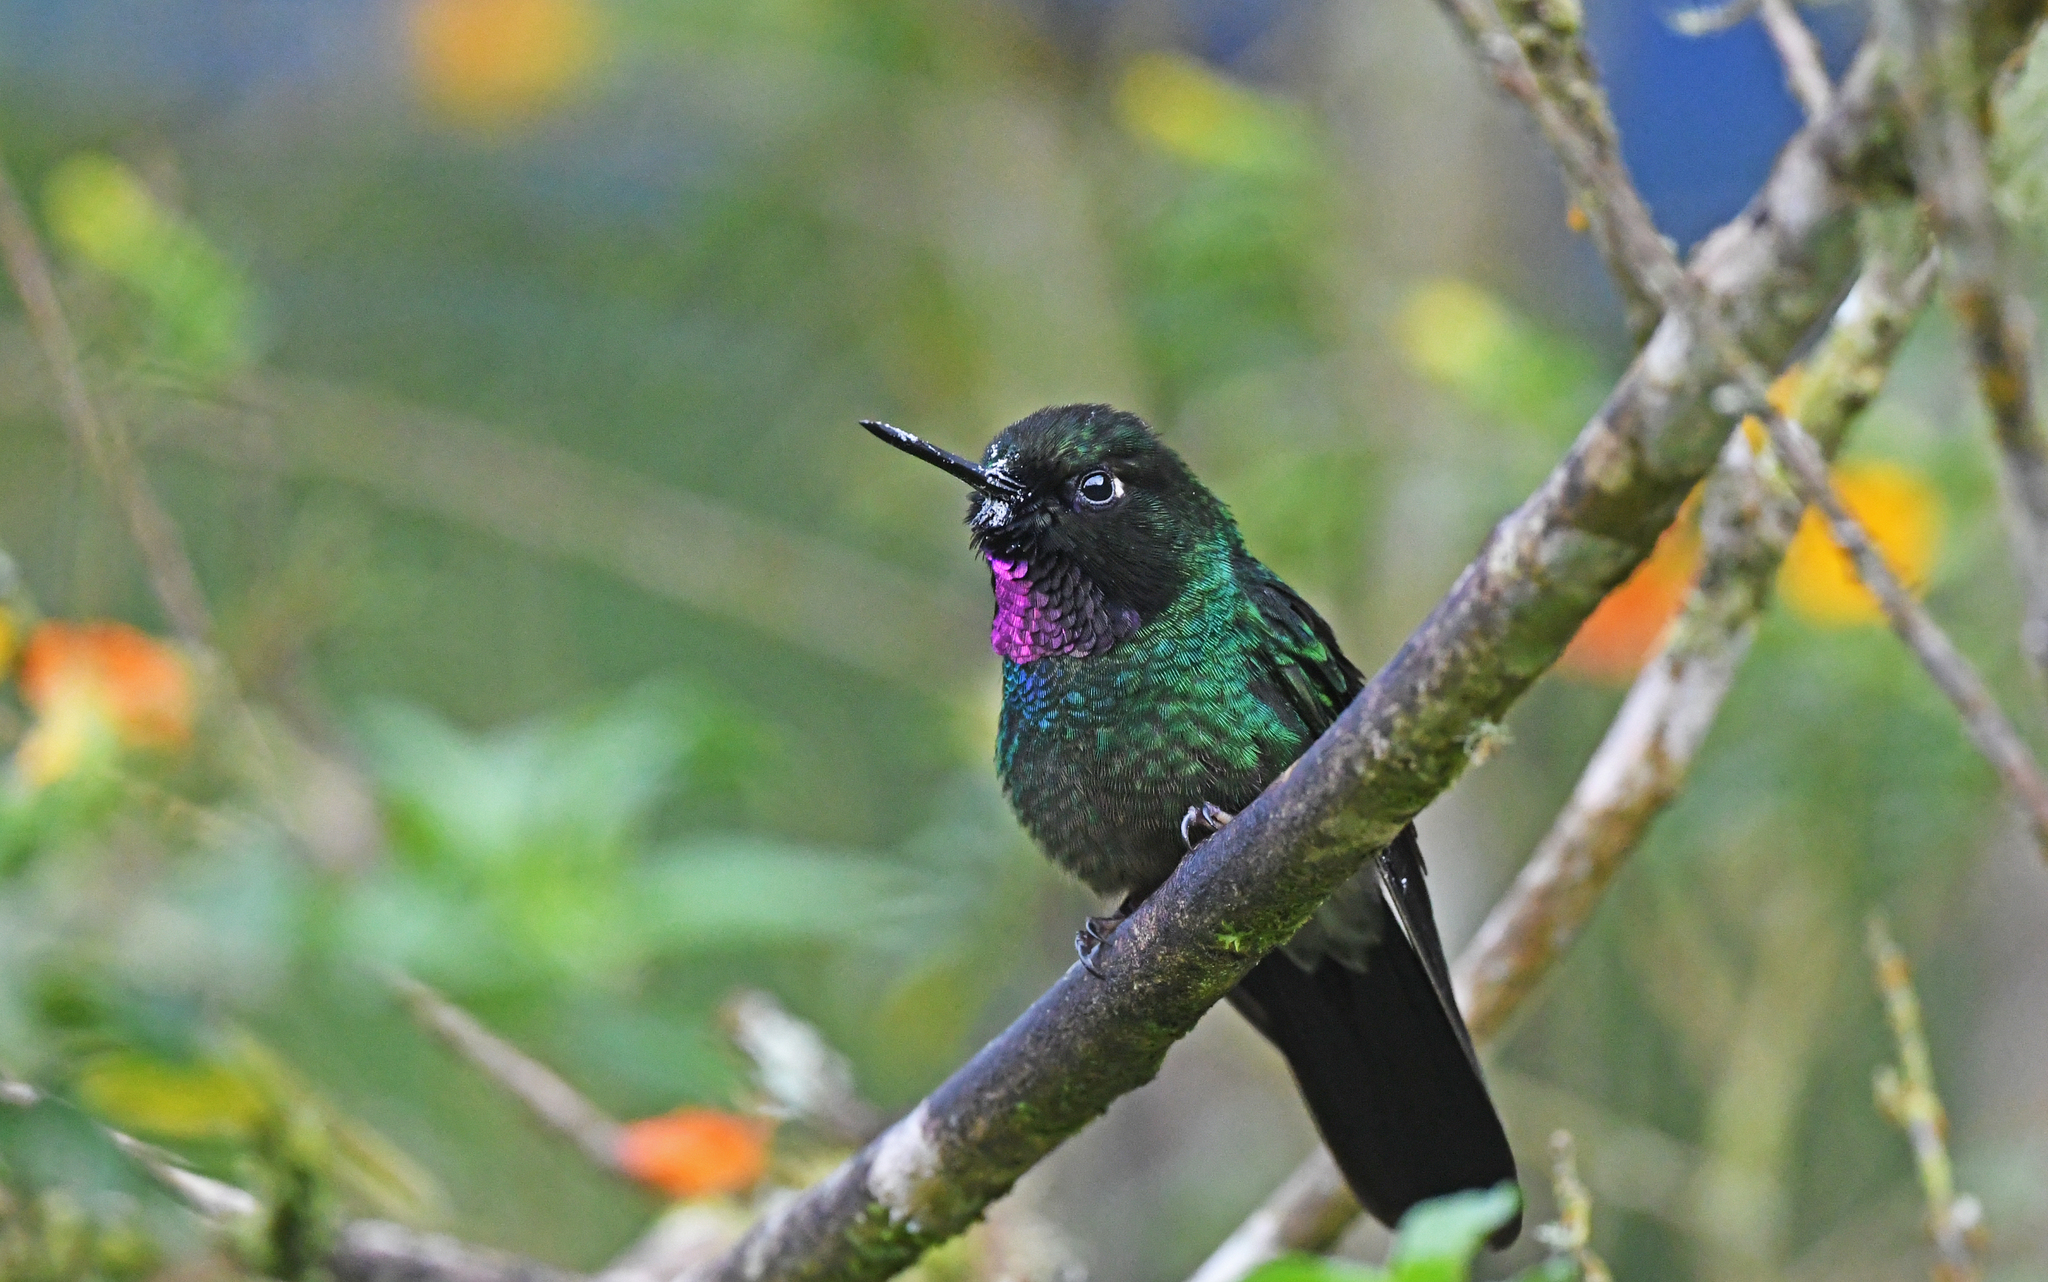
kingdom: Animalia
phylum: Chordata
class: Aves
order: Apodiformes
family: Trochilidae
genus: Heliangelus
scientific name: Heliangelus exortis
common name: Tourmaline sunangel
